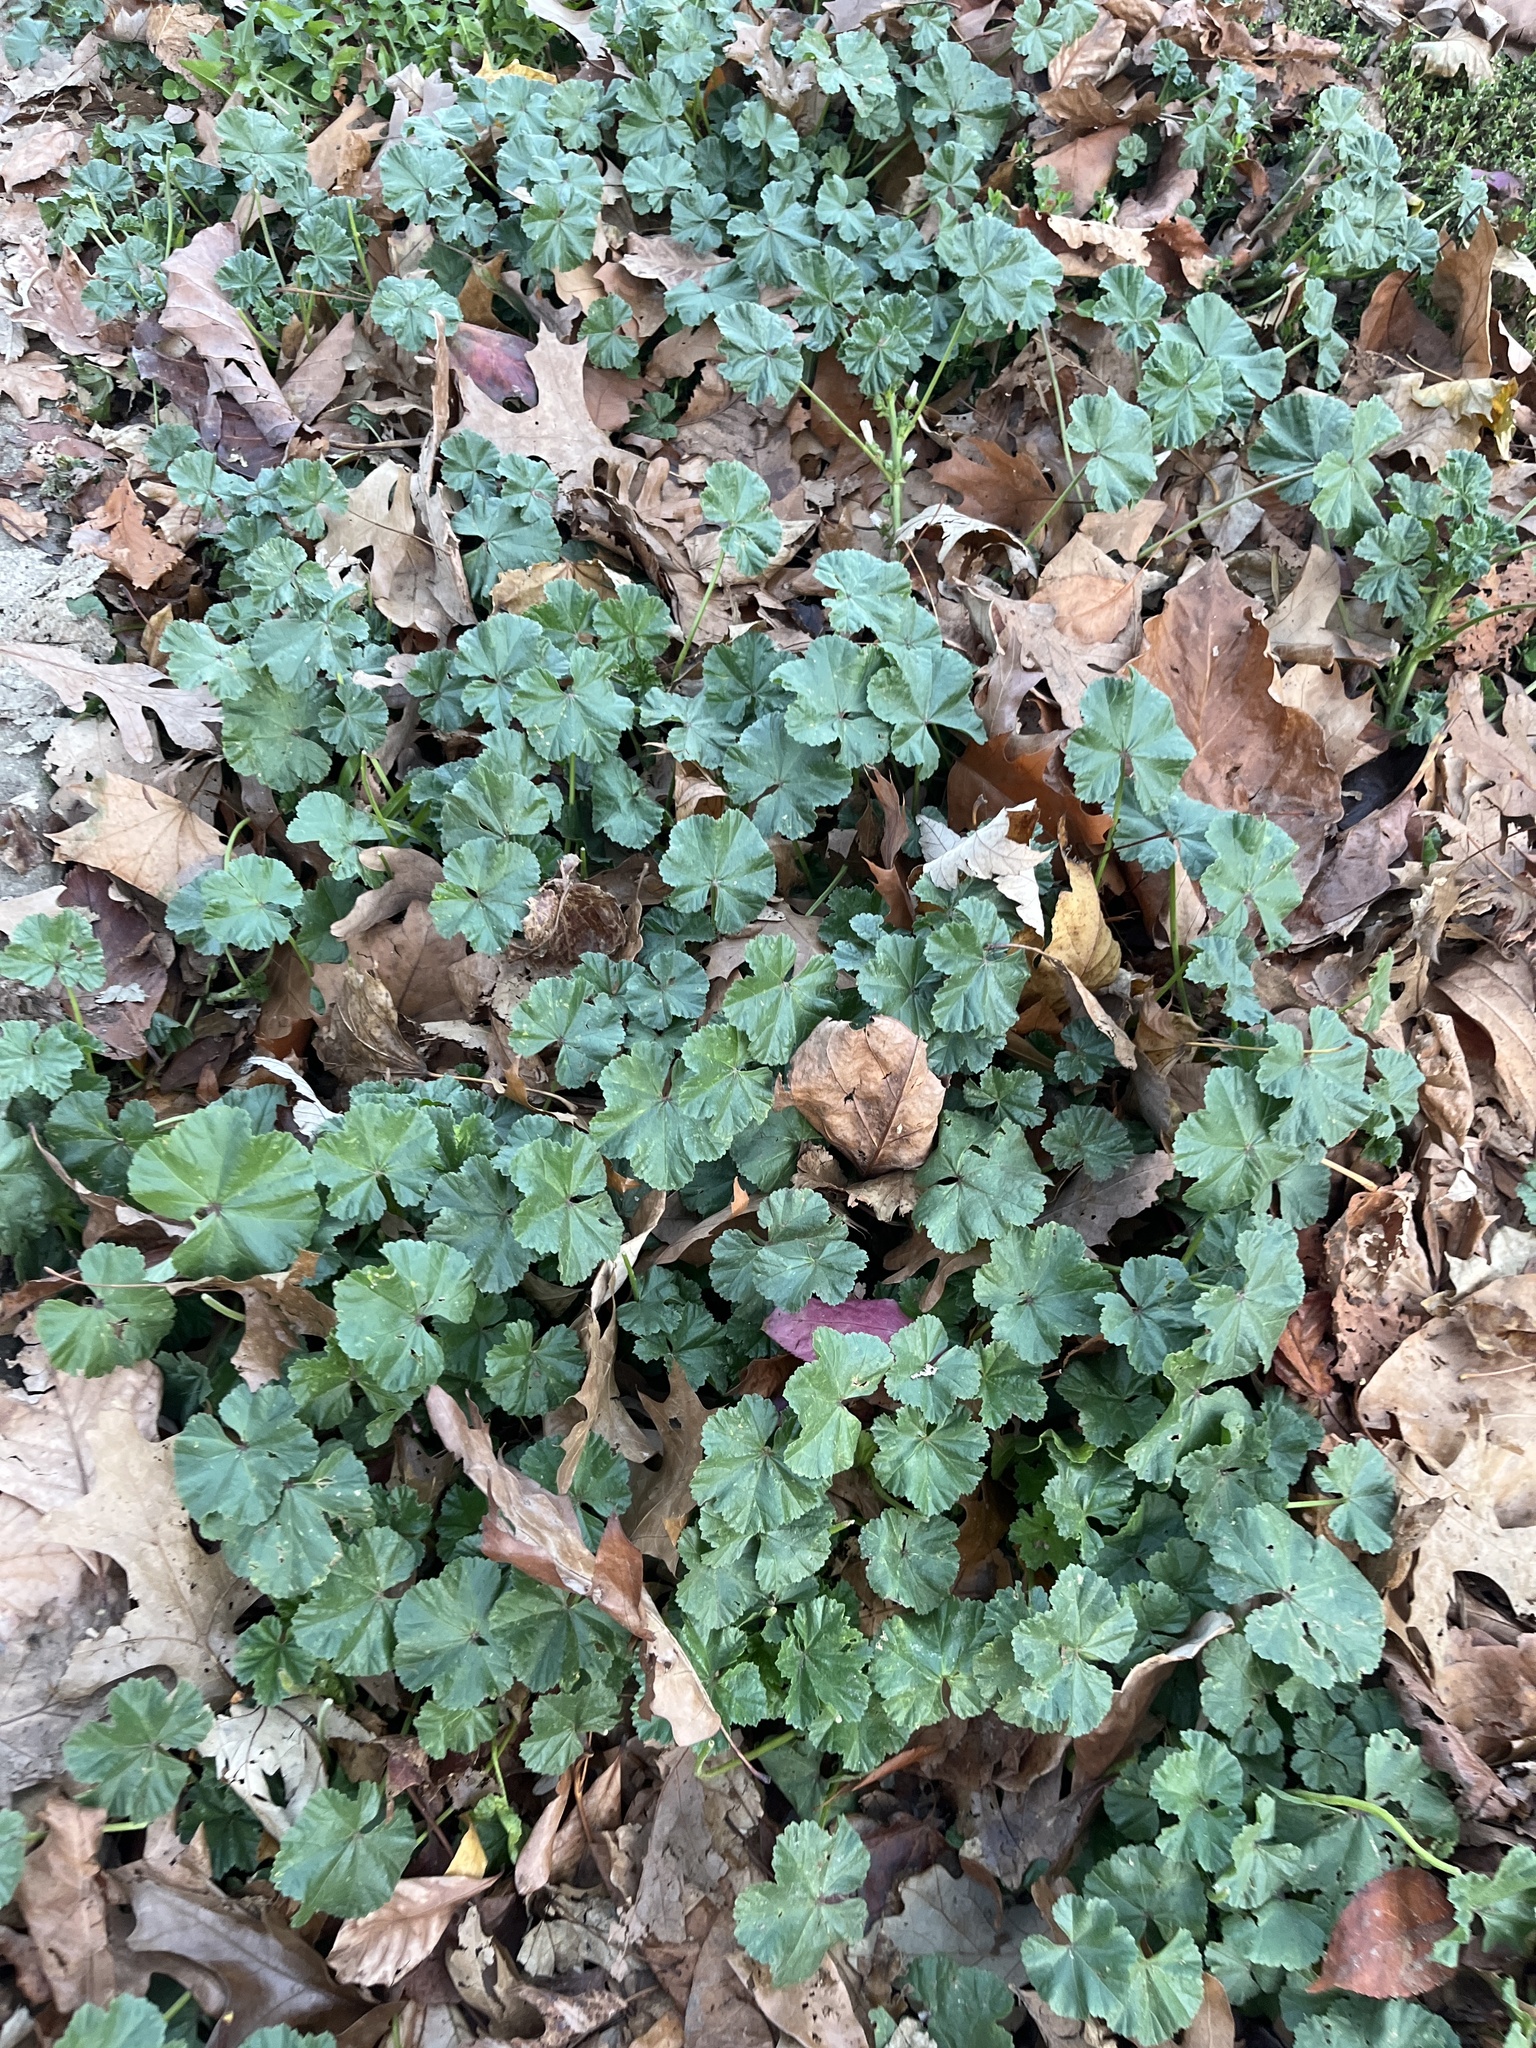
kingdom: Plantae
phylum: Tracheophyta
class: Magnoliopsida
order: Malvales
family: Malvaceae
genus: Malva
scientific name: Malva
